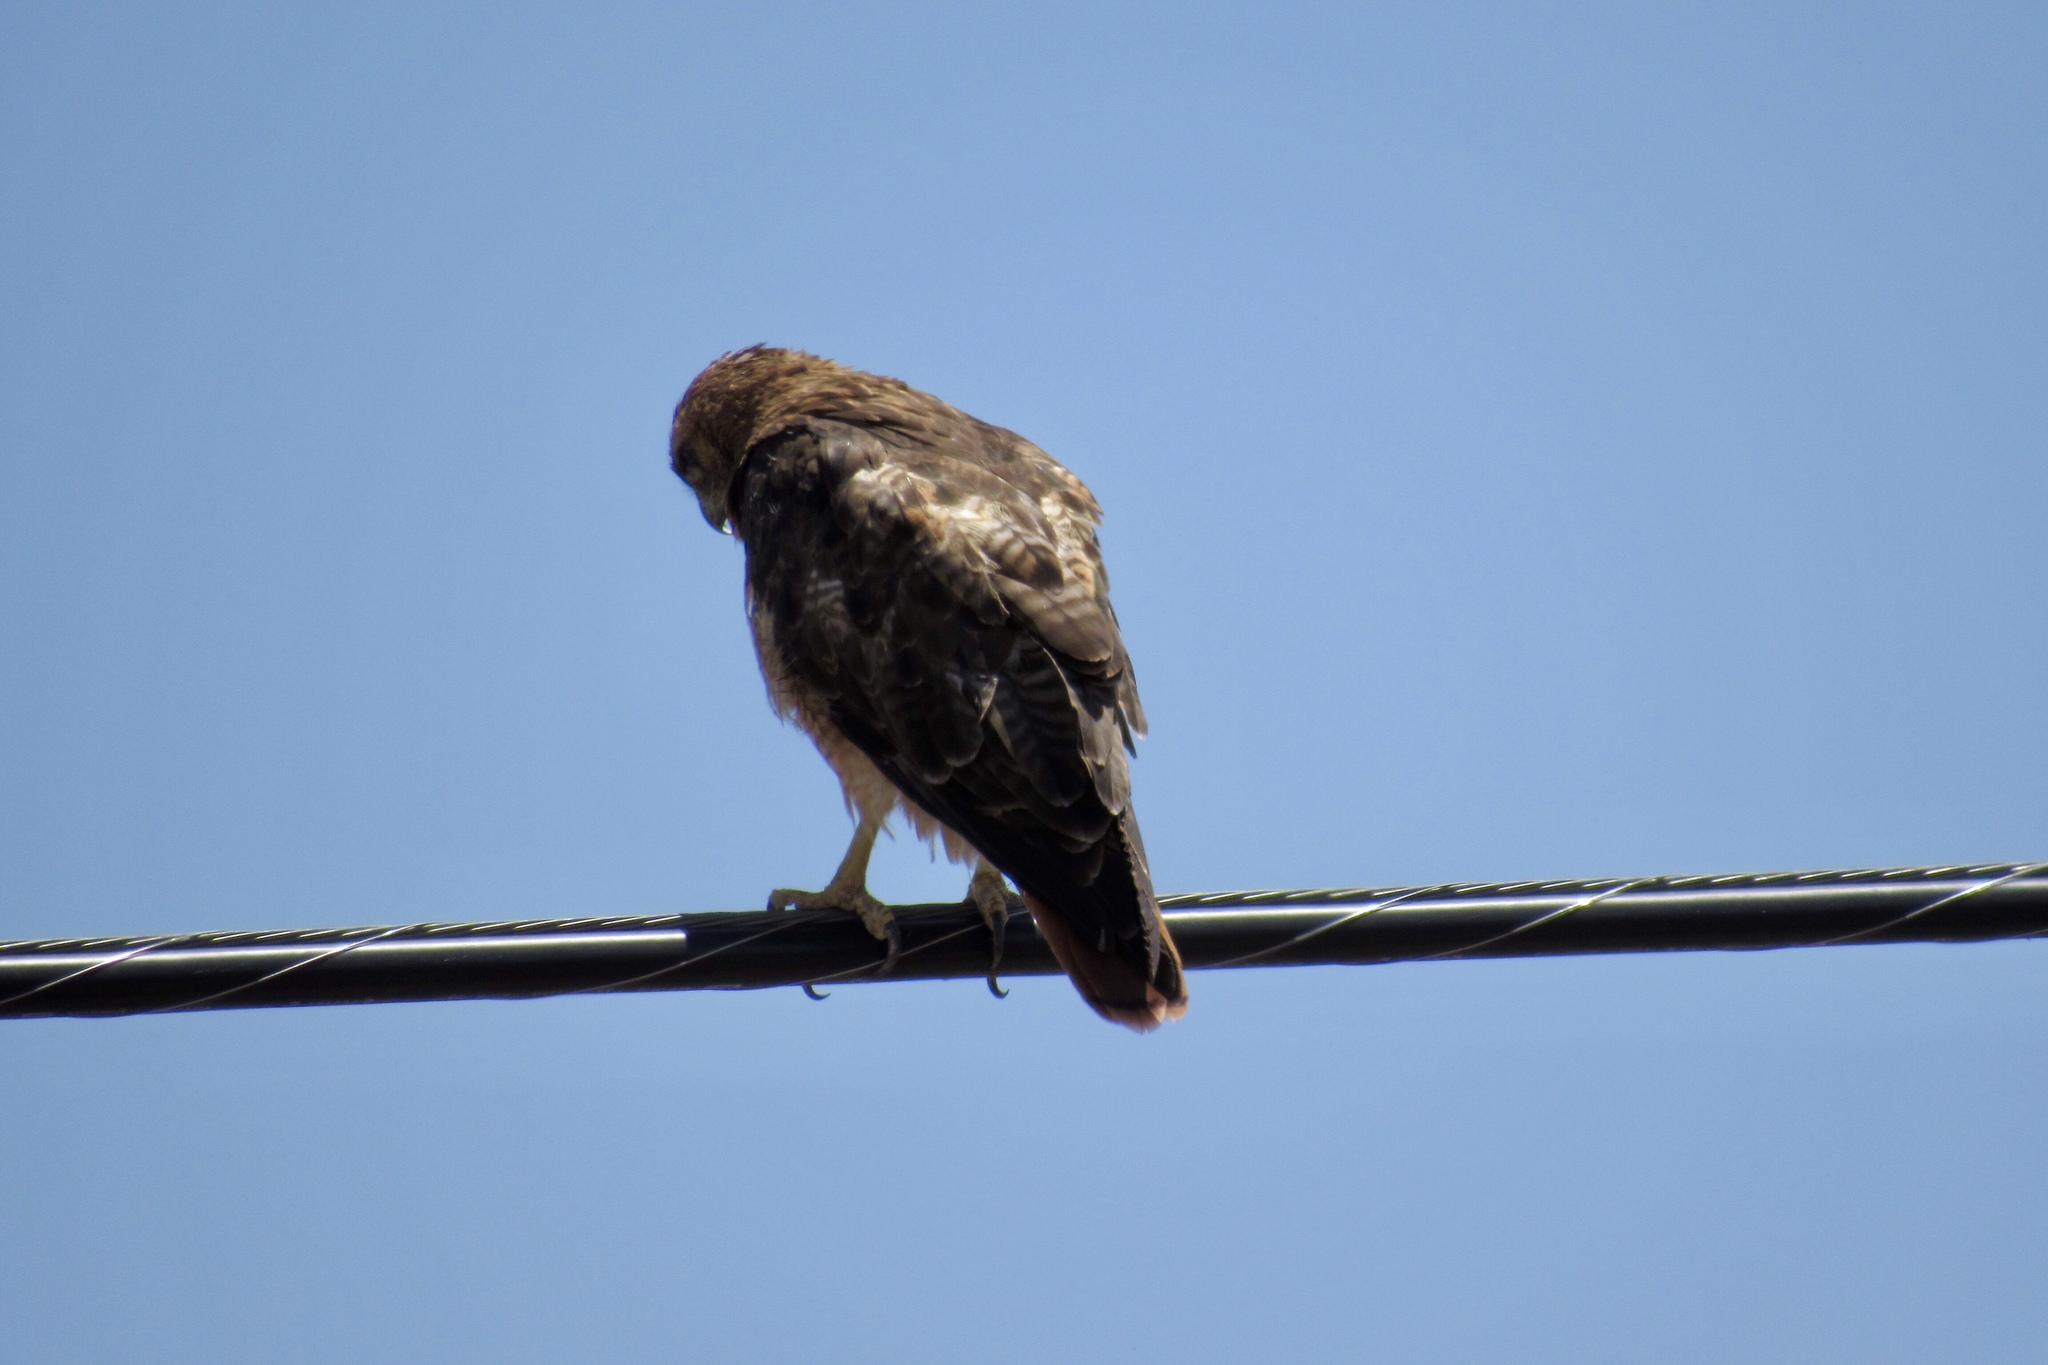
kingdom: Animalia
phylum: Chordata
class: Aves
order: Accipitriformes
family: Accipitridae
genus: Buteo
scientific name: Buteo jamaicensis
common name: Red-tailed hawk
